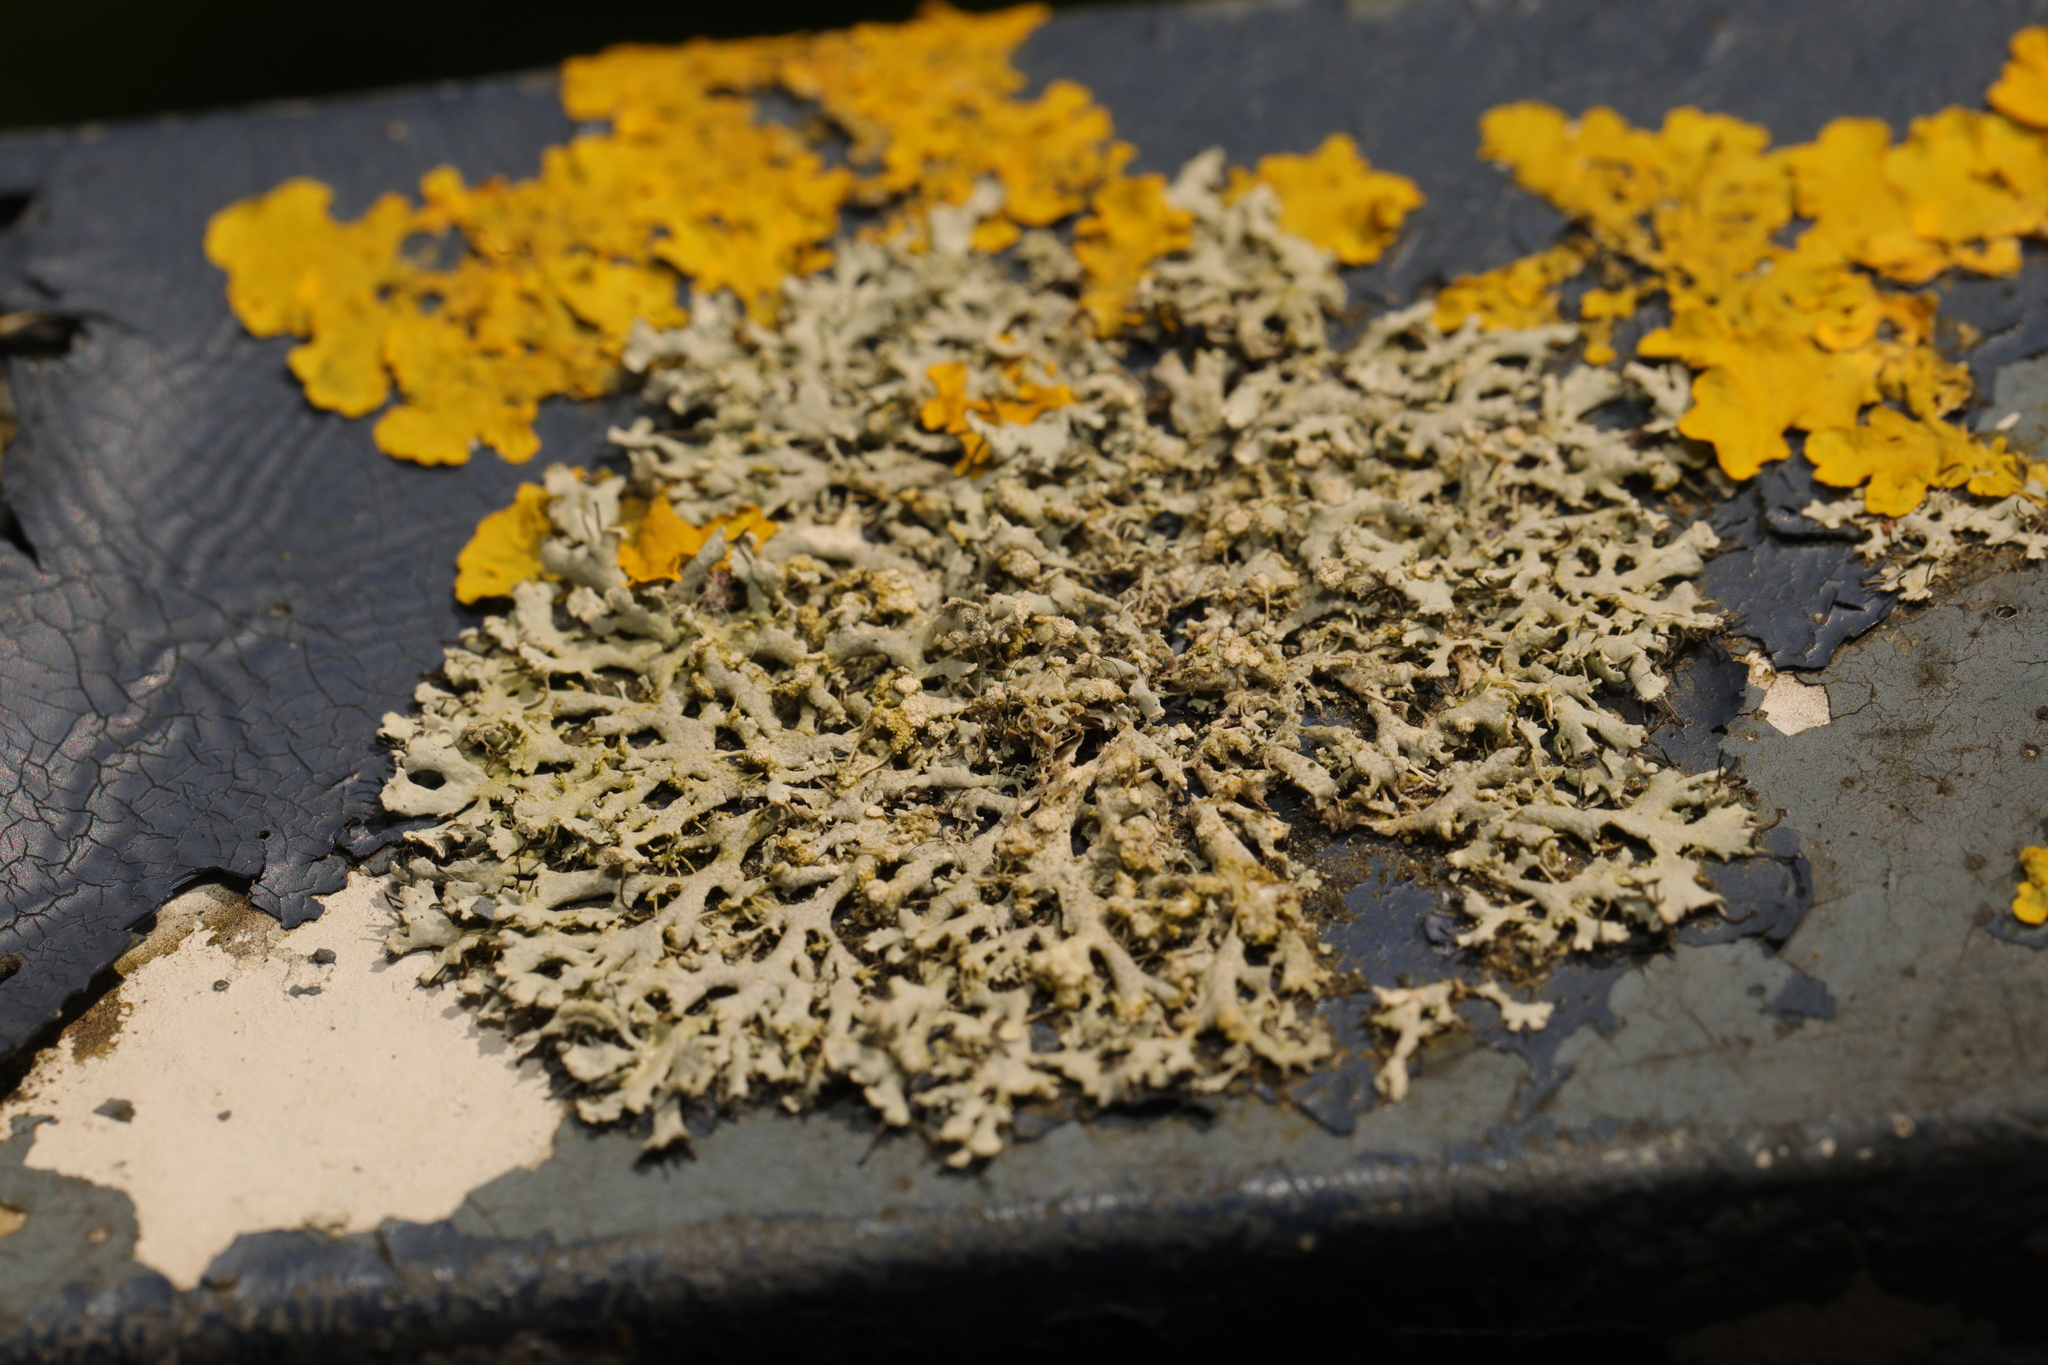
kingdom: Fungi
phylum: Ascomycota
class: Lecanoromycetes
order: Caliciales
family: Physciaceae
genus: Physcia
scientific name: Physcia tenella
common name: Fringed rosette lichen
